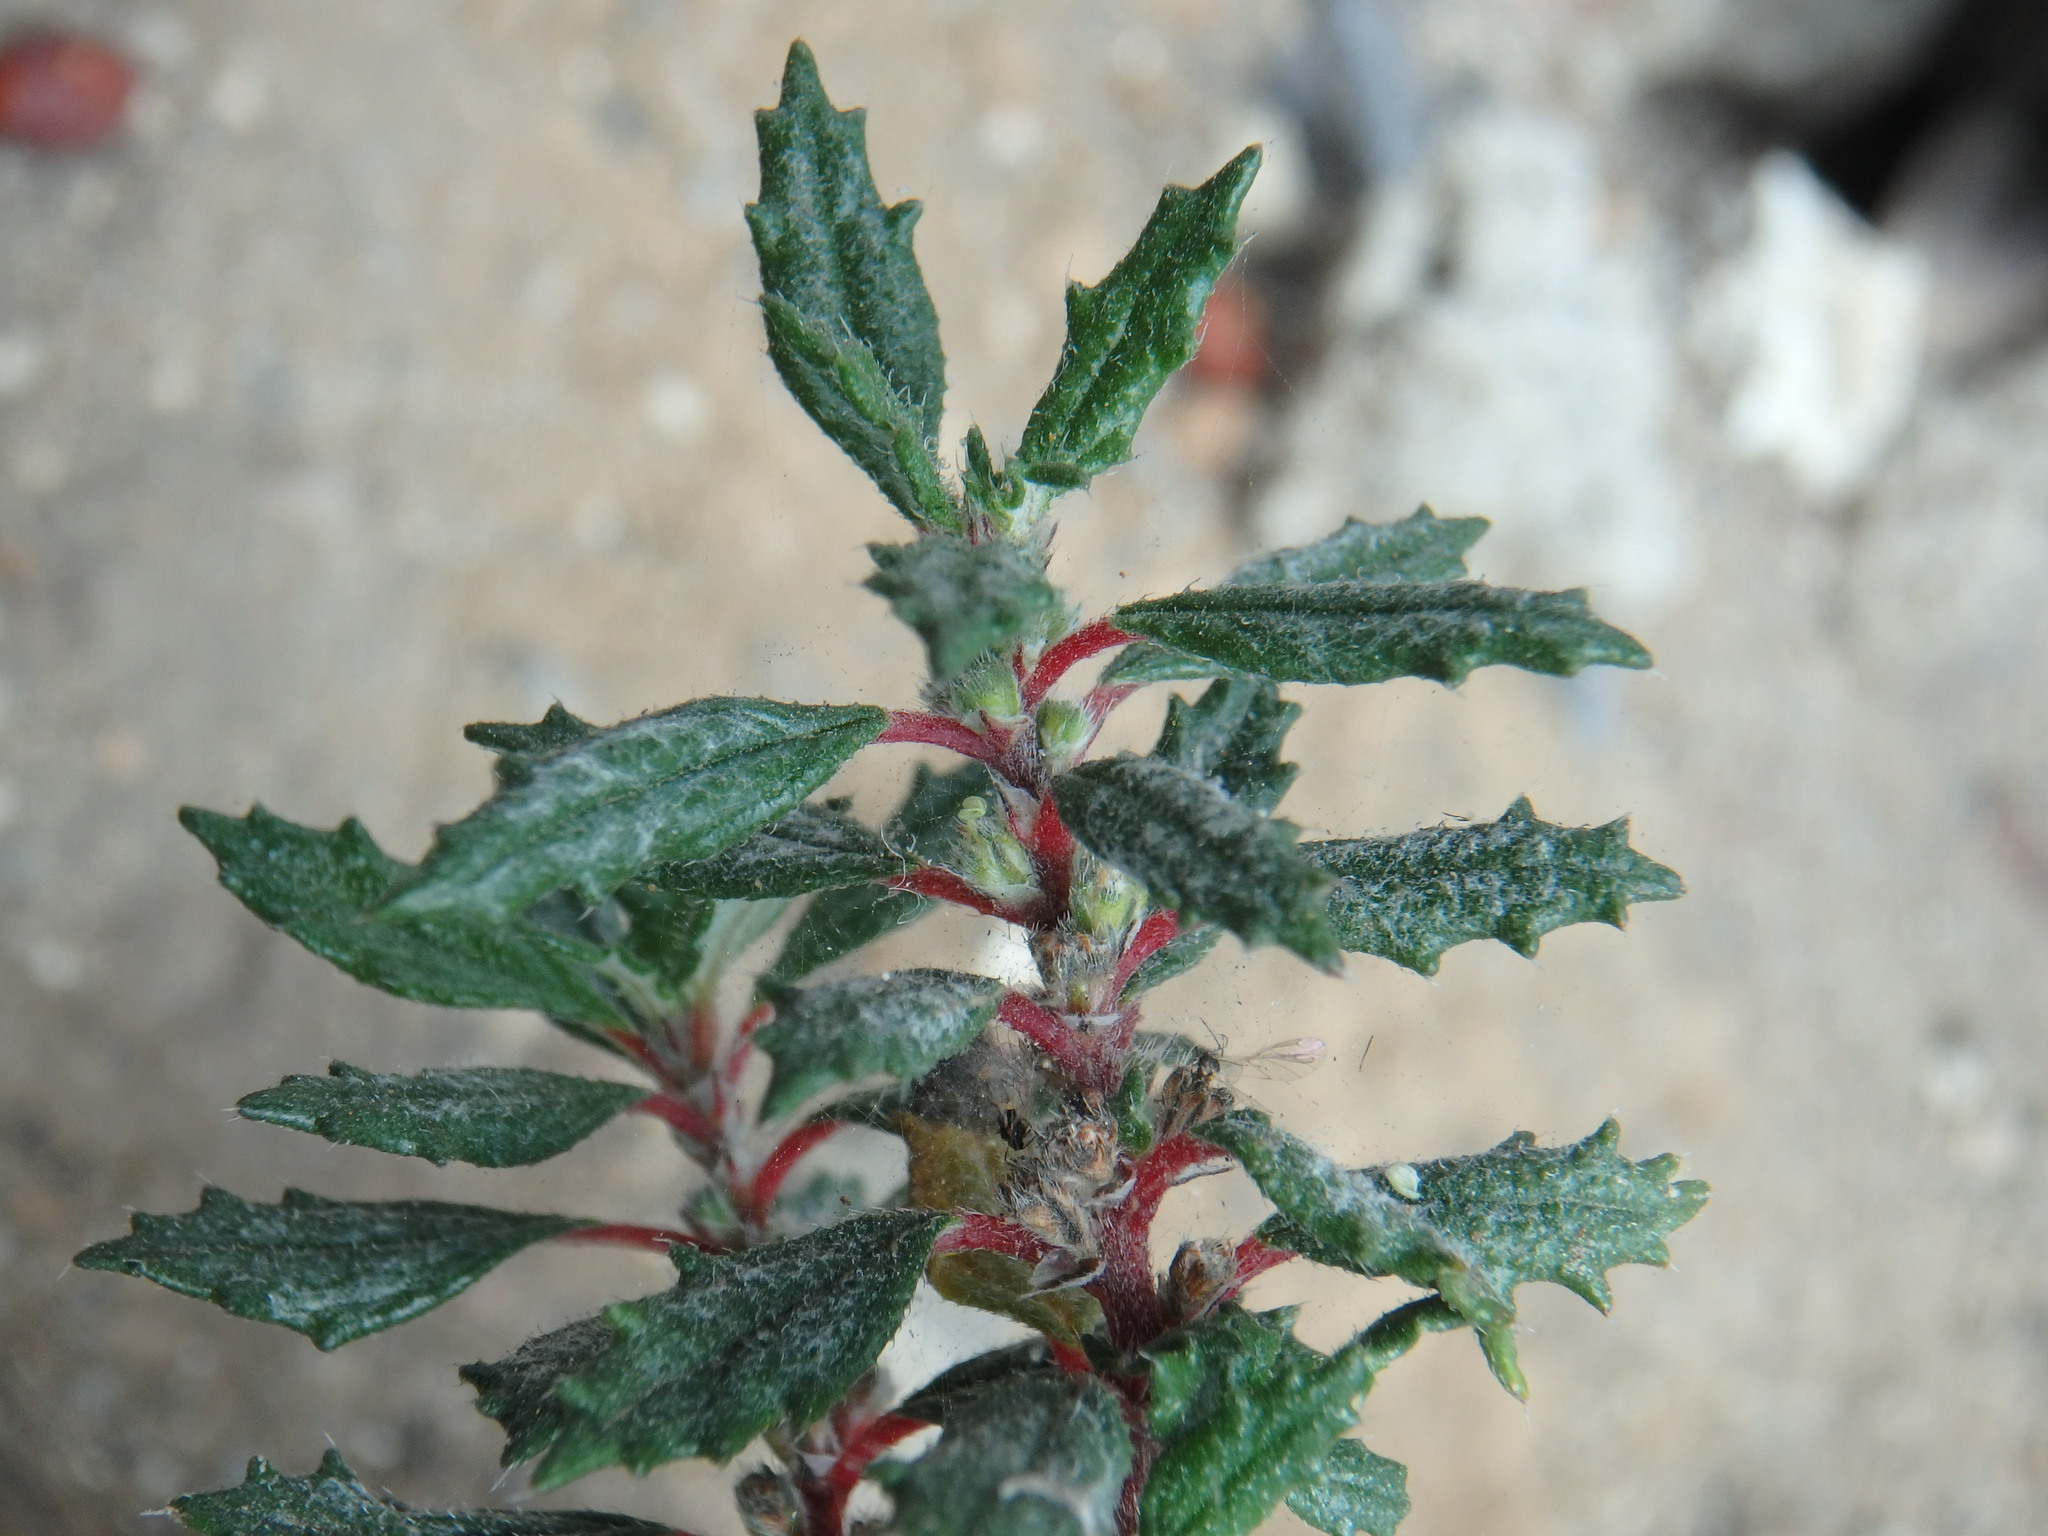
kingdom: Plantae
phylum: Tracheophyta
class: Magnoliopsida
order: Rosales
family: Urticaceae
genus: Forsskaolea
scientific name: Forsskaolea angustifolia
